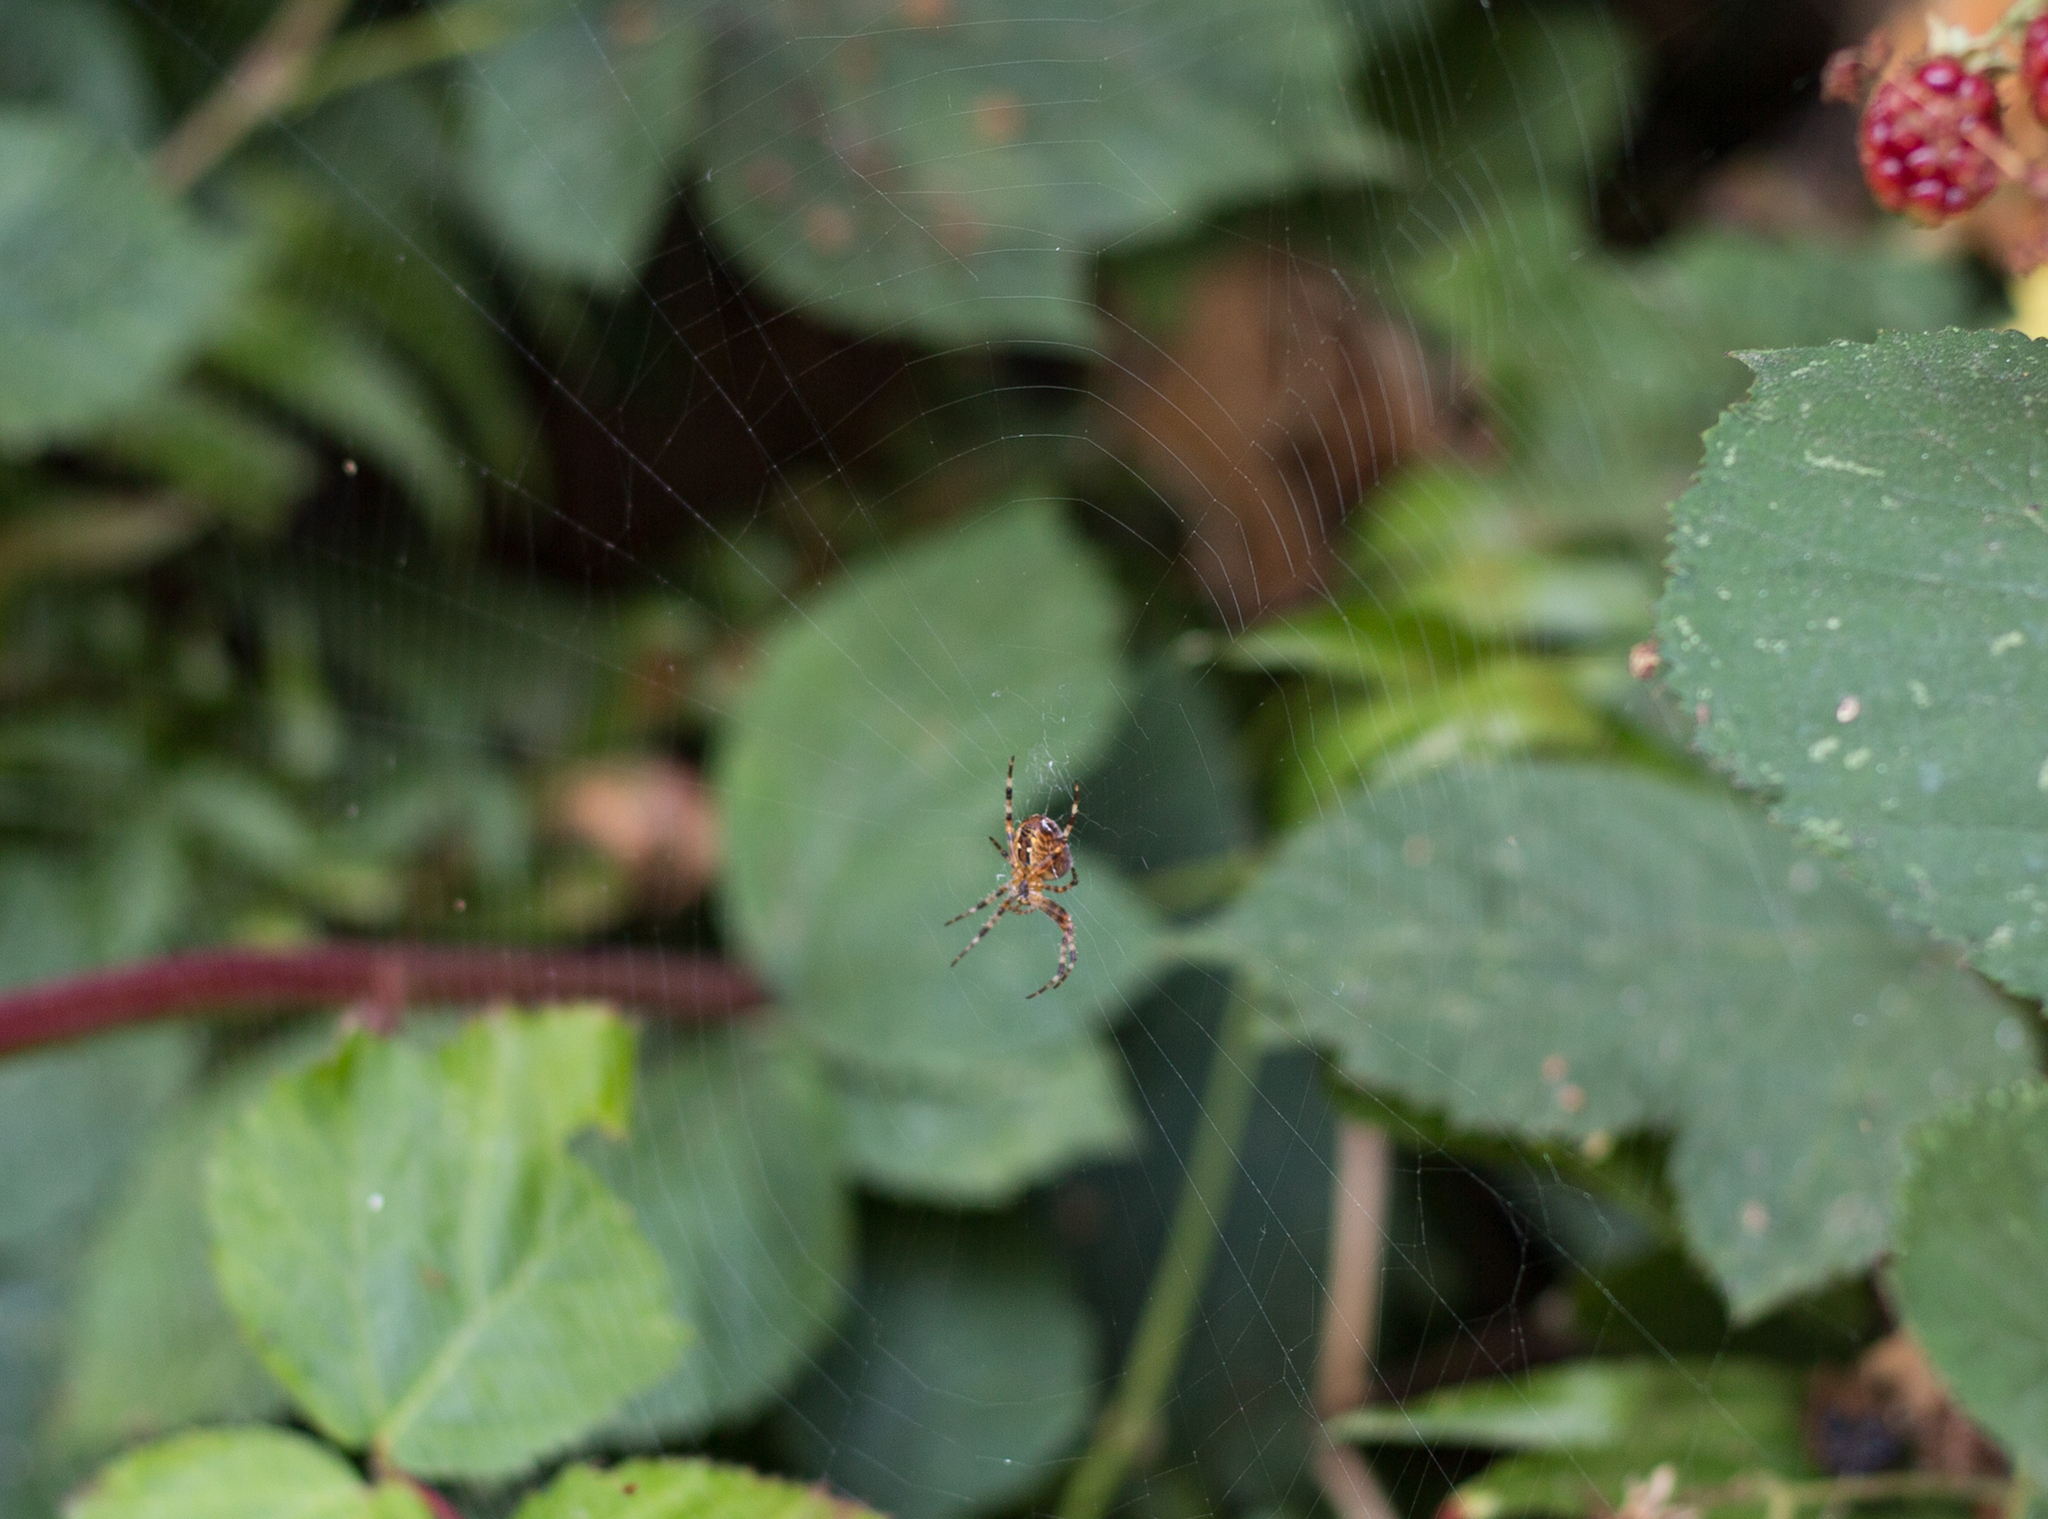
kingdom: Animalia
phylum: Arthropoda
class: Arachnida
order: Araneae
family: Araneidae
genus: Araneus
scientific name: Araneus diadematus
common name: Cross orbweaver
